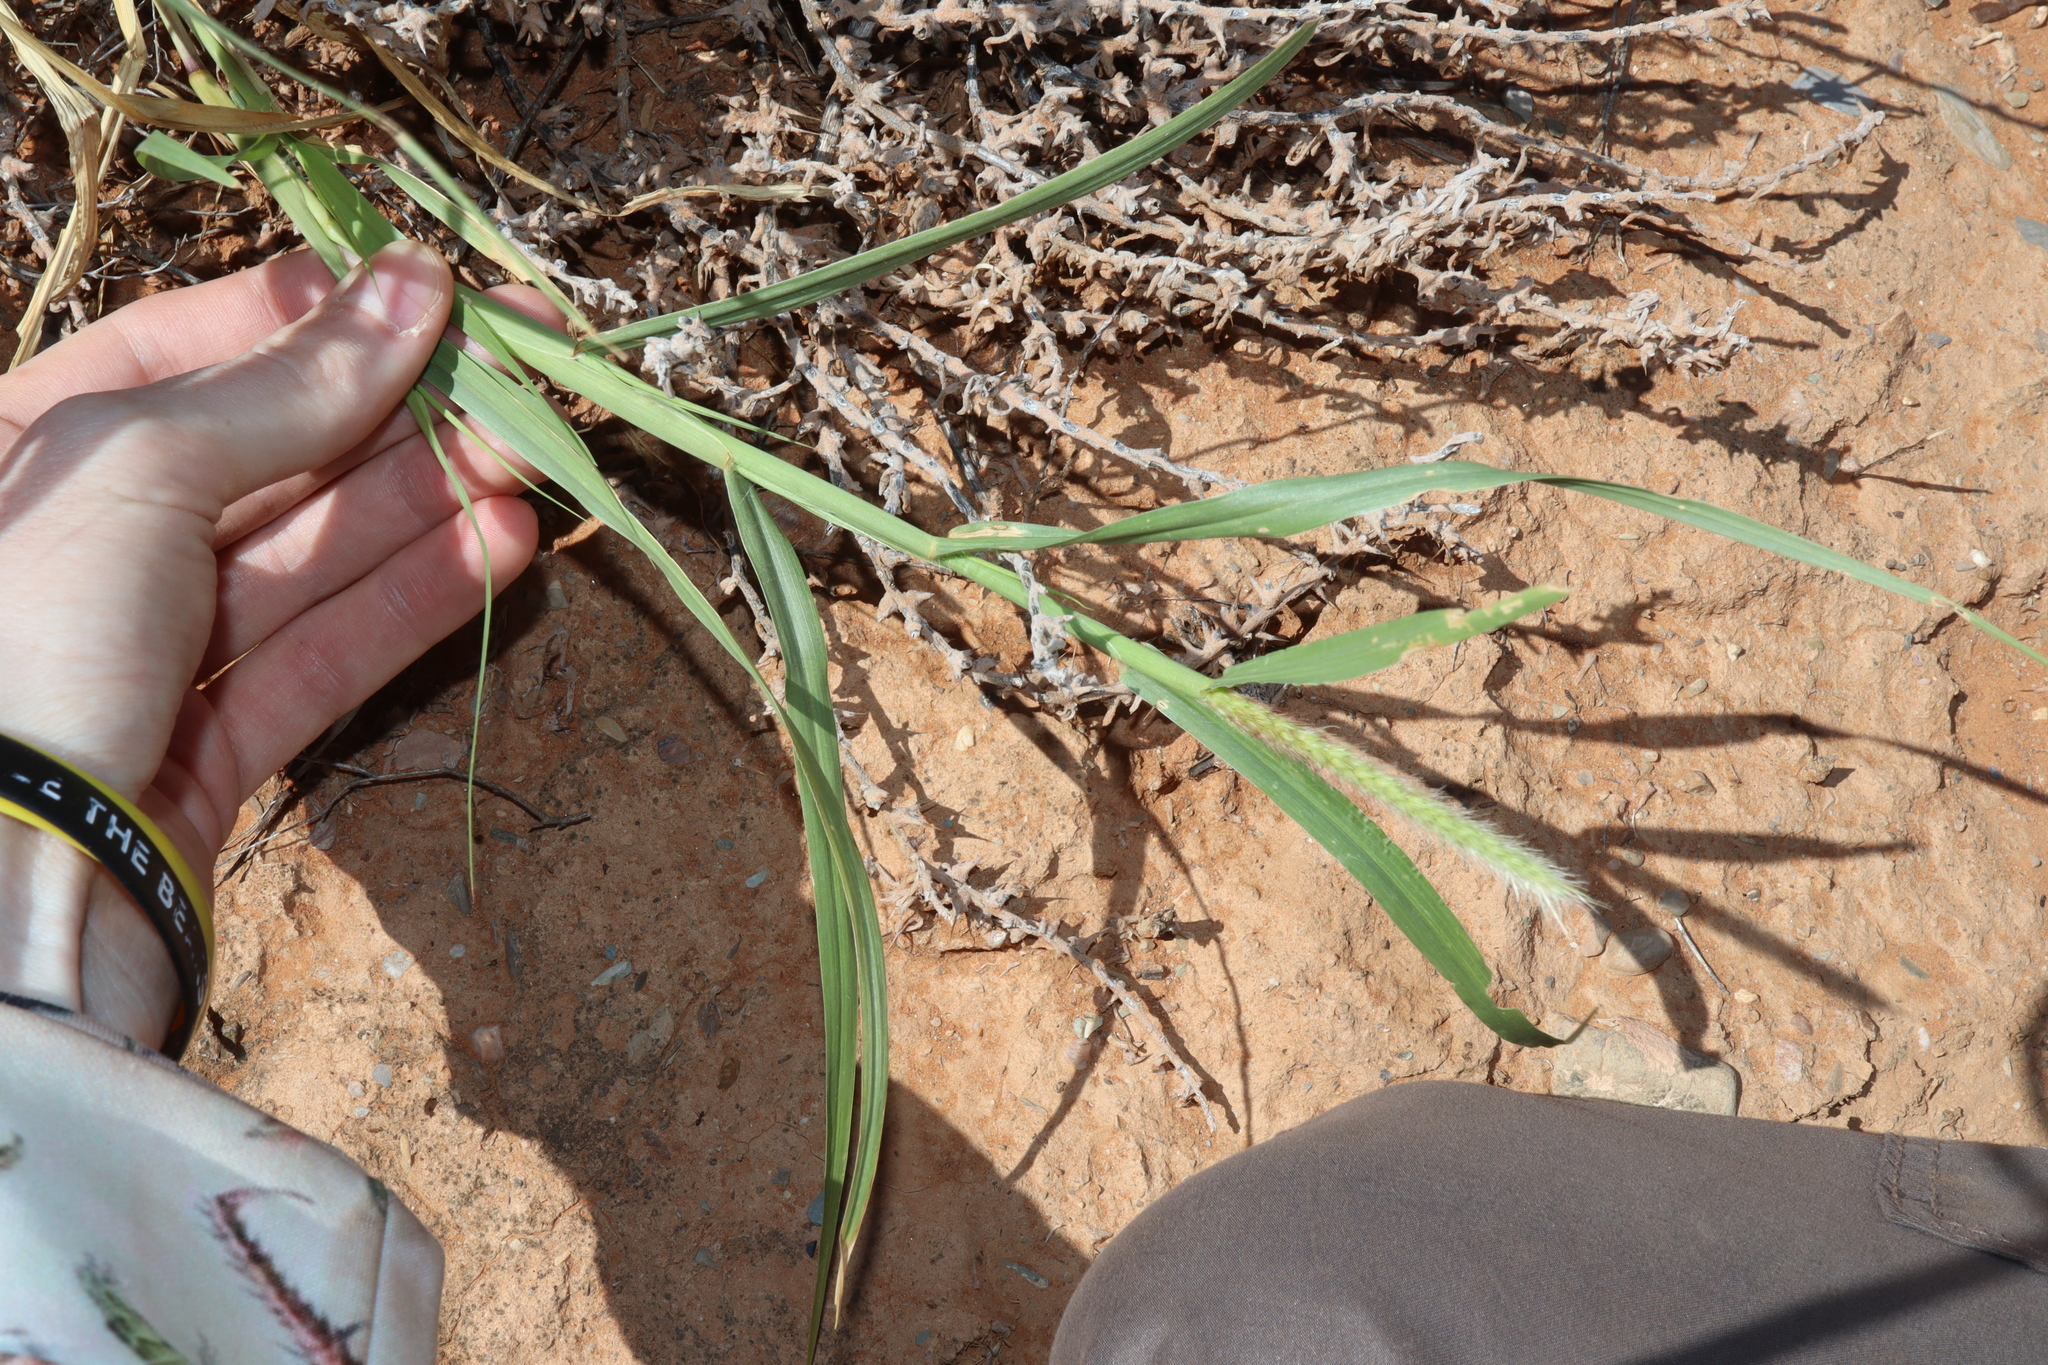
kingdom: Plantae
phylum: Tracheophyta
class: Liliopsida
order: Poales
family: Poaceae
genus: Cenchrus
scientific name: Cenchrus ciliaris
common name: Buffelgrass
